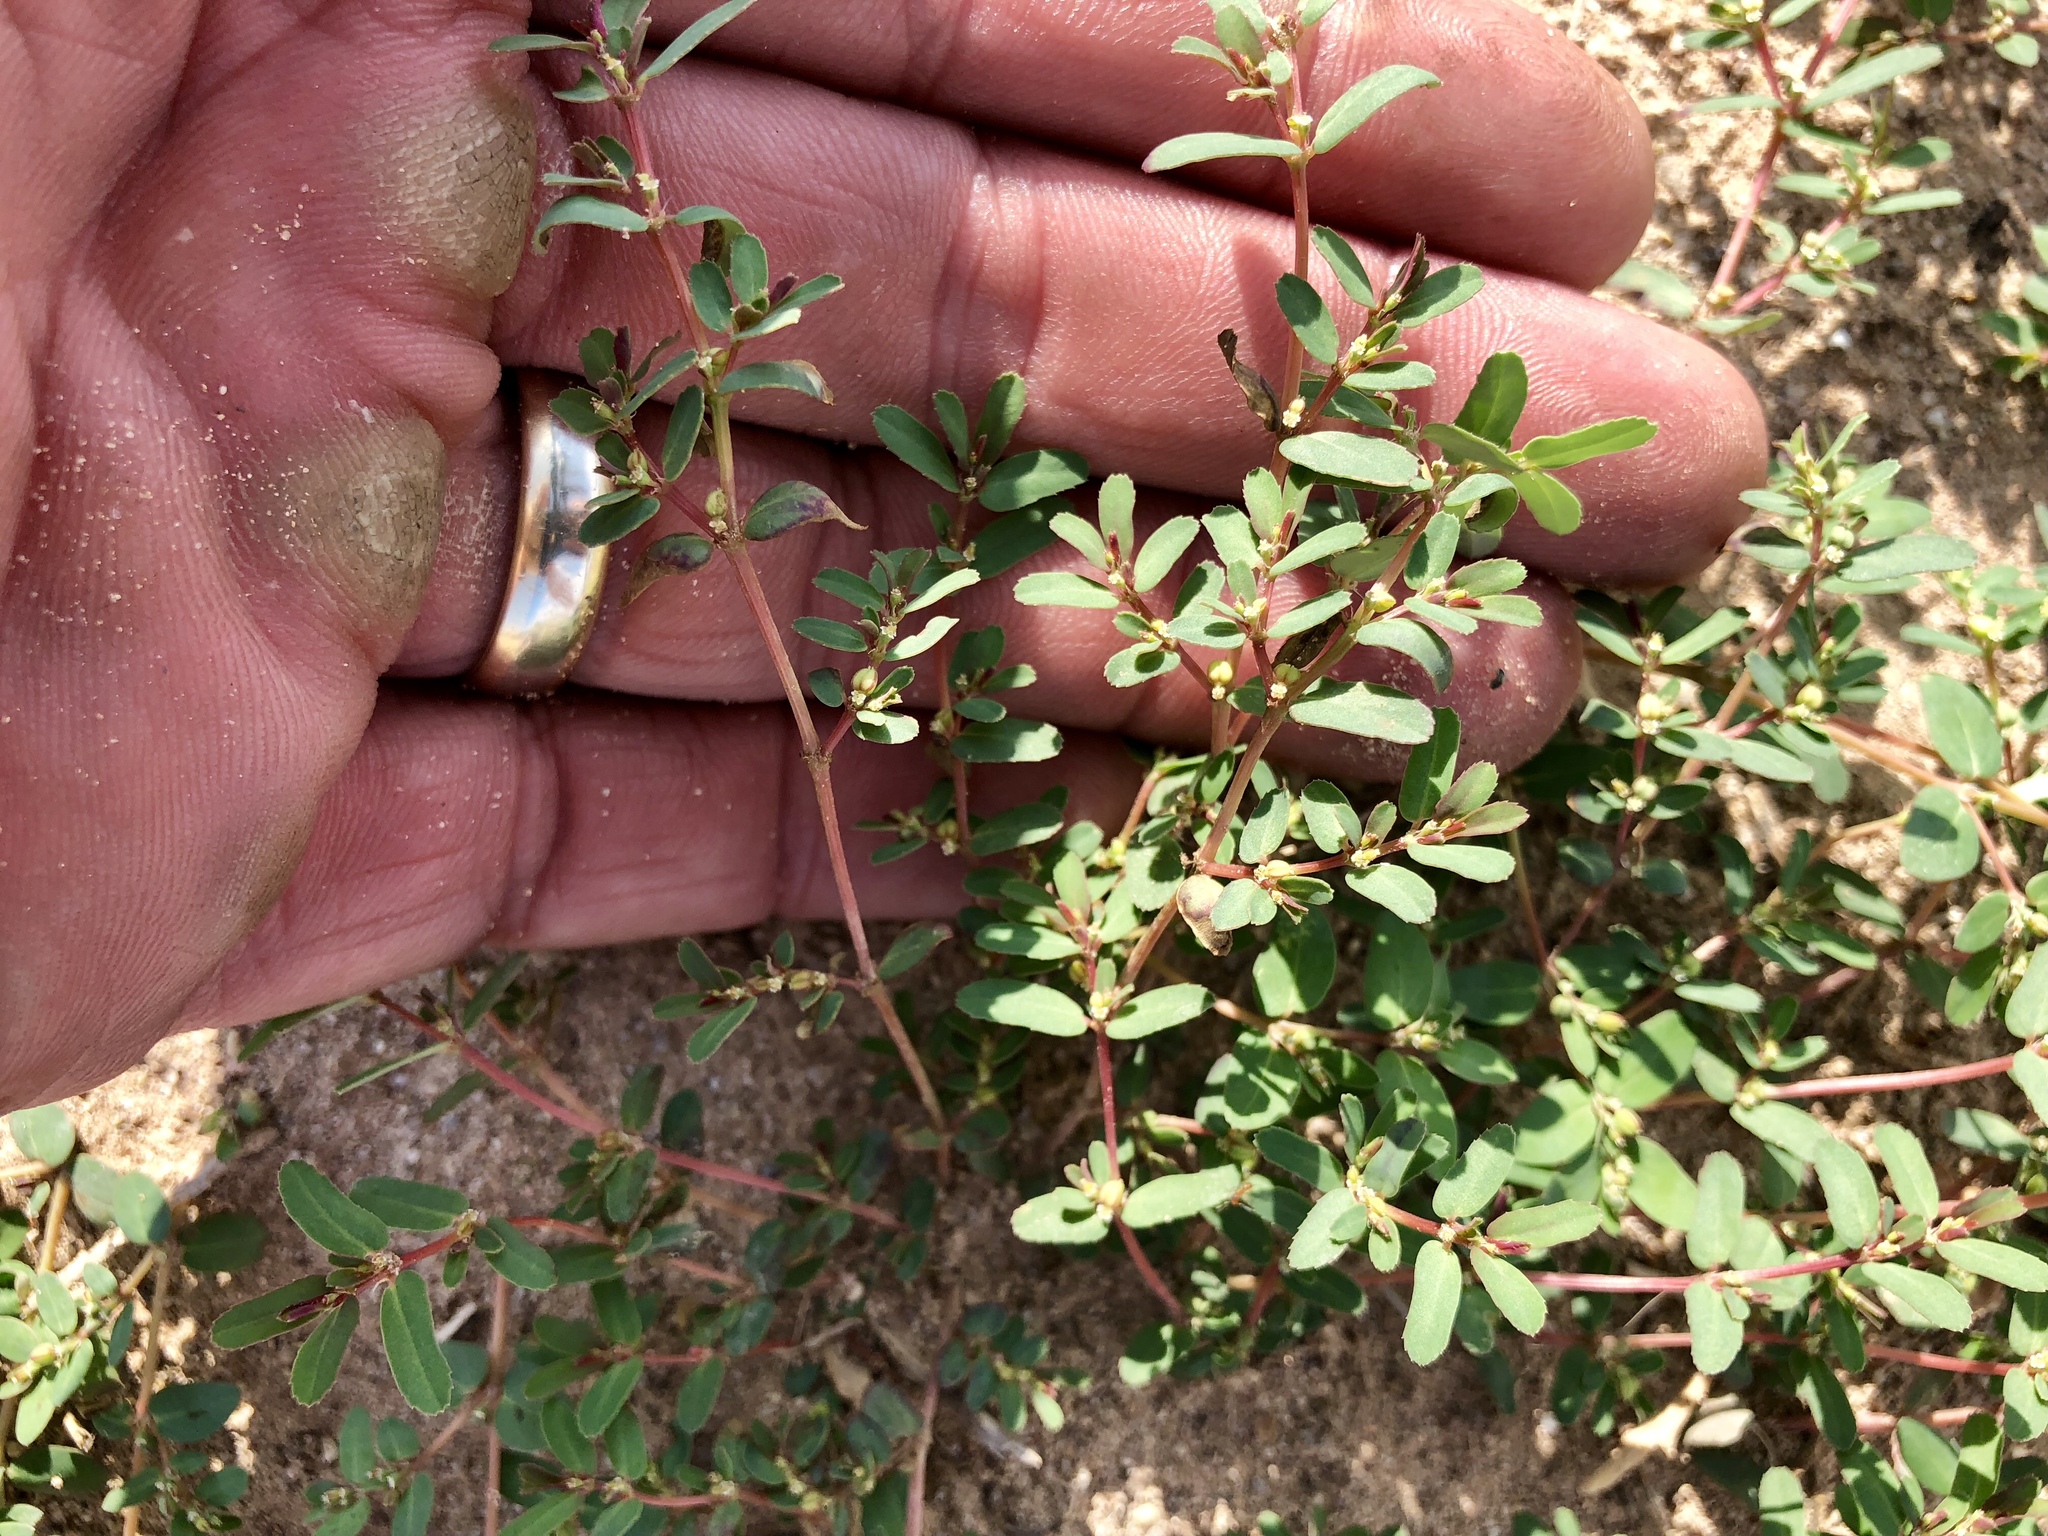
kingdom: Plantae
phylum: Tracheophyta
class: Magnoliopsida
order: Malpighiales
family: Euphorbiaceae
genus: Euphorbia
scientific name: Euphorbia serpillifolia
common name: Thyme-leaf spurge
